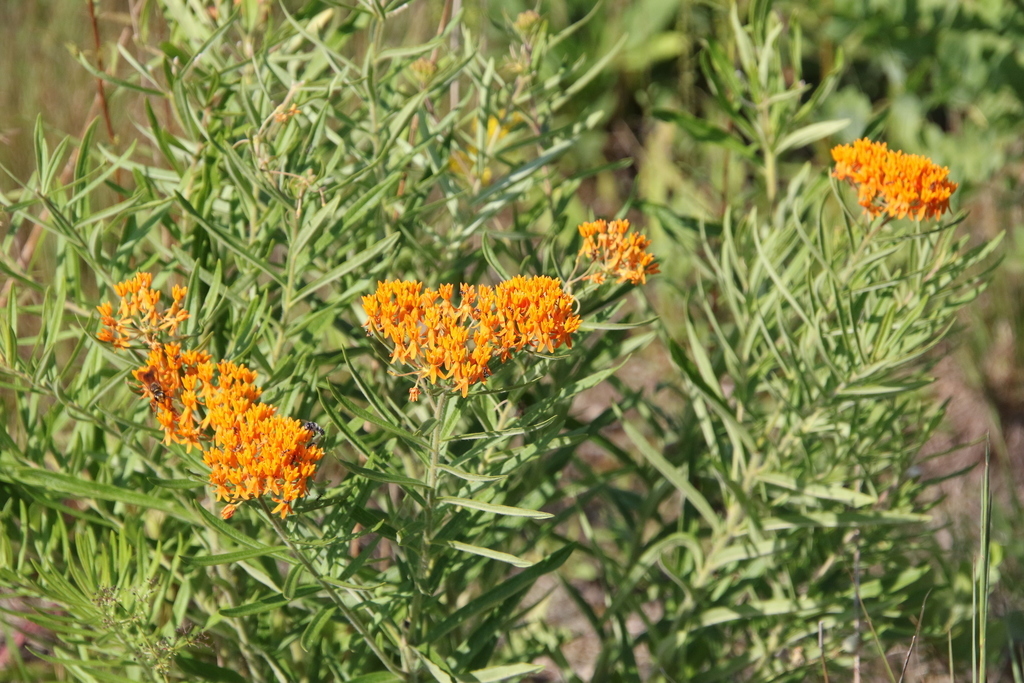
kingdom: Plantae
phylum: Tracheophyta
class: Magnoliopsida
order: Gentianales
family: Apocynaceae
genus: Asclepias
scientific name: Asclepias tuberosa
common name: Butterfly milkweed
